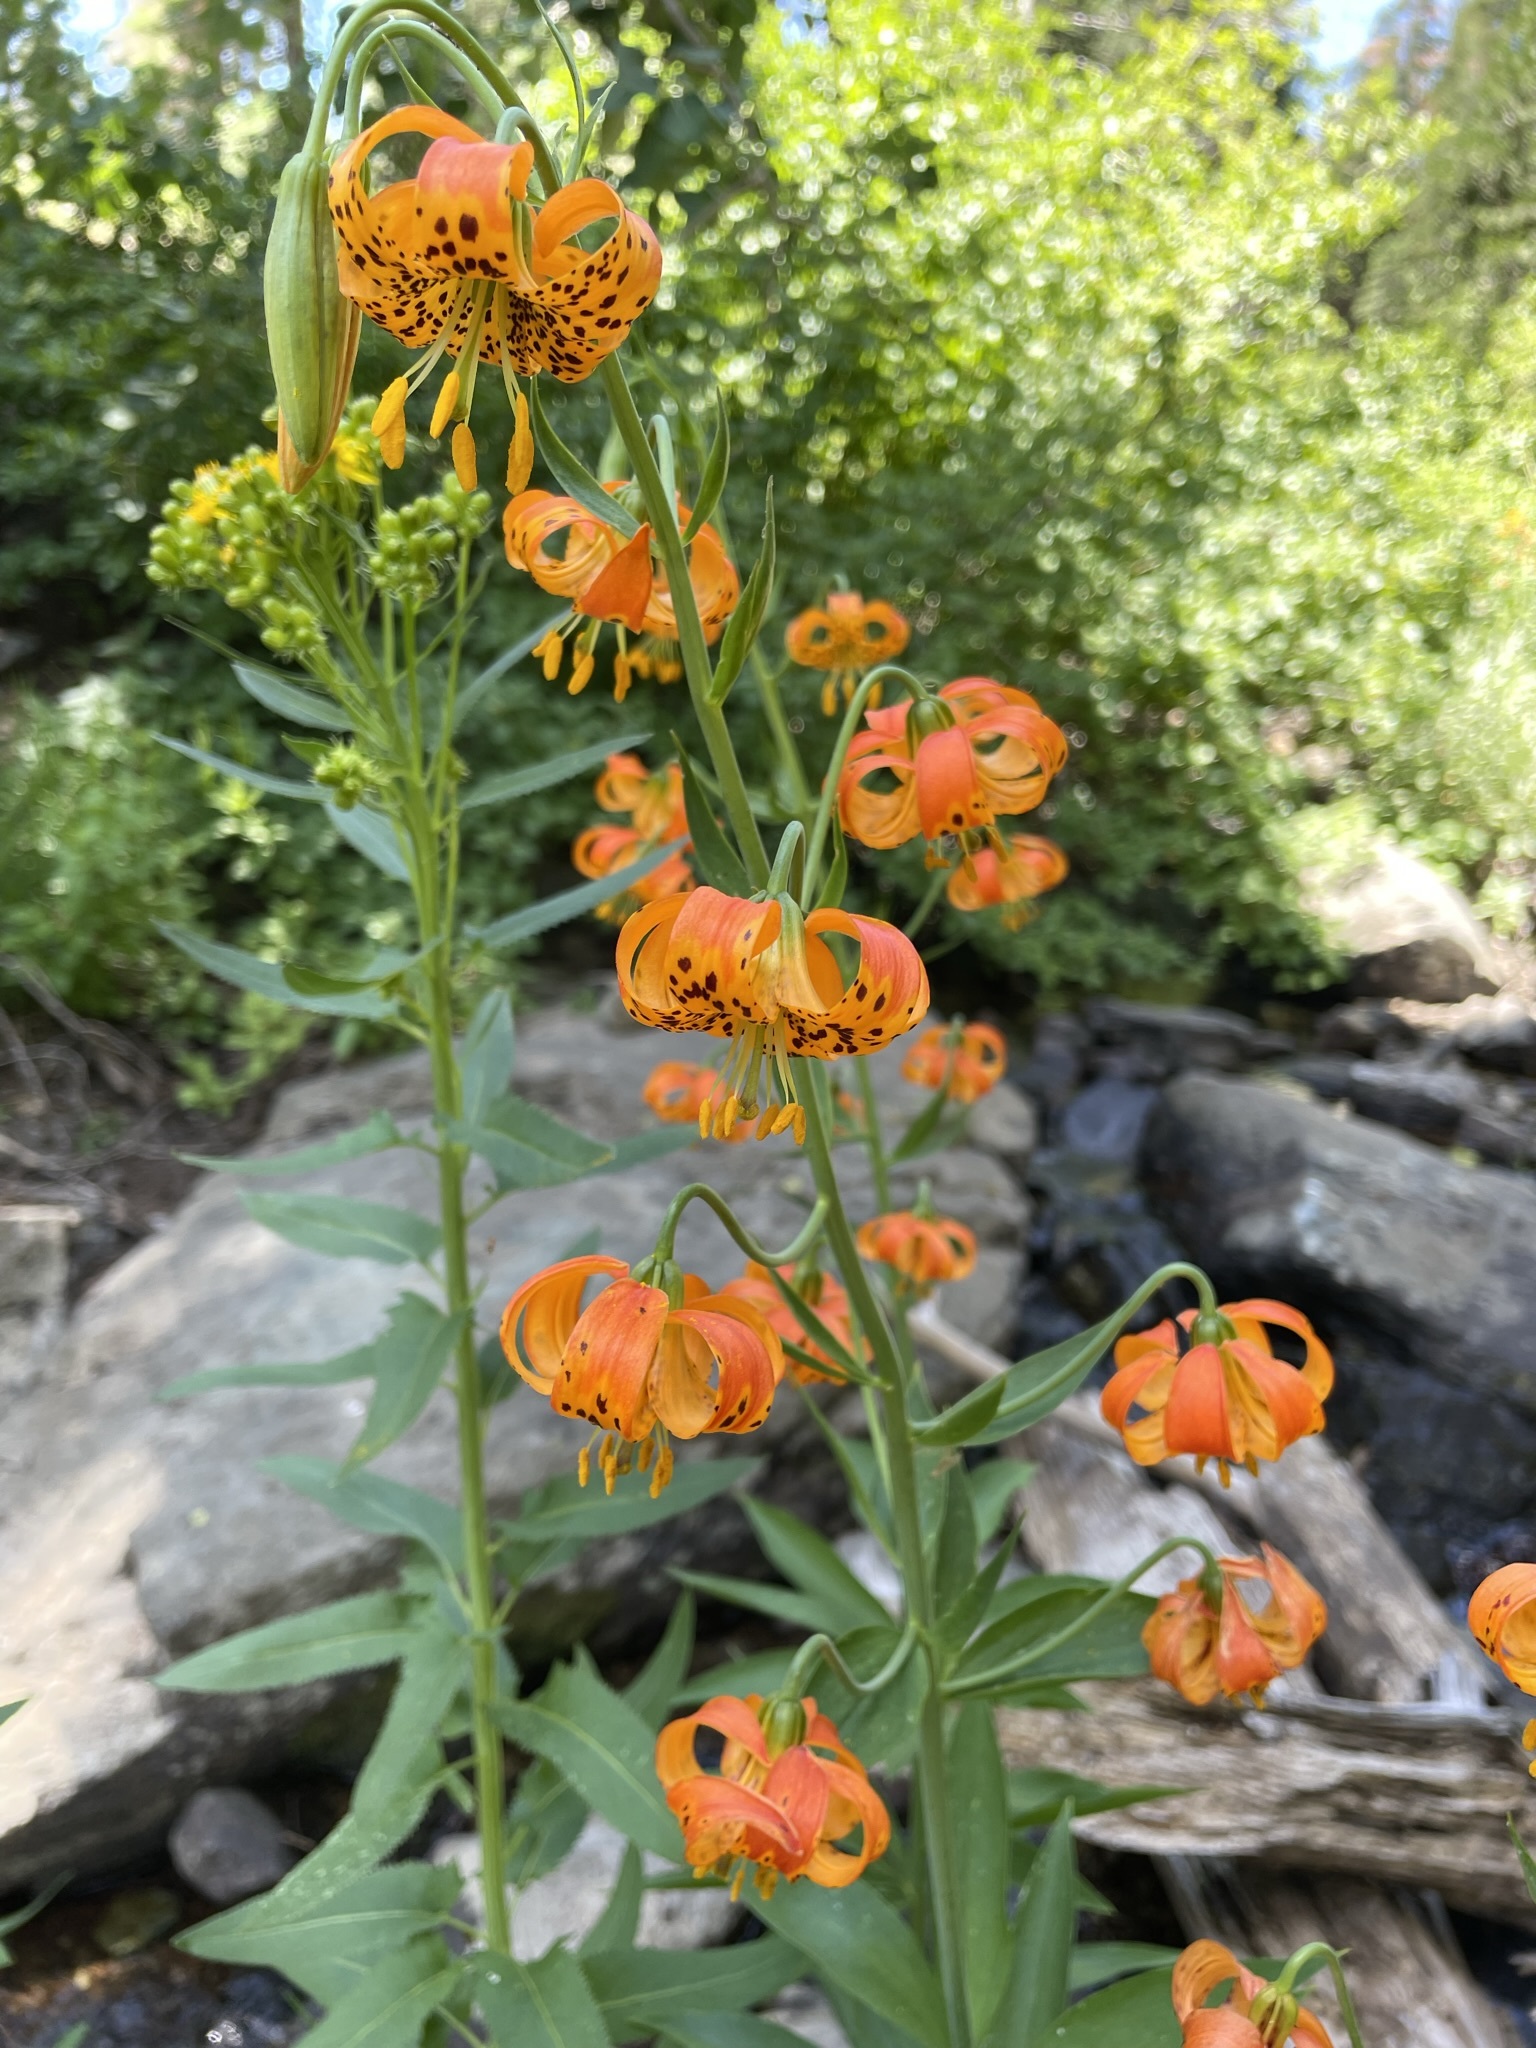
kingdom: Plantae
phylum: Tracheophyta
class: Liliopsida
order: Liliales
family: Liliaceae
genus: Lilium
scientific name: Lilium pardalinum
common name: Panther lily
